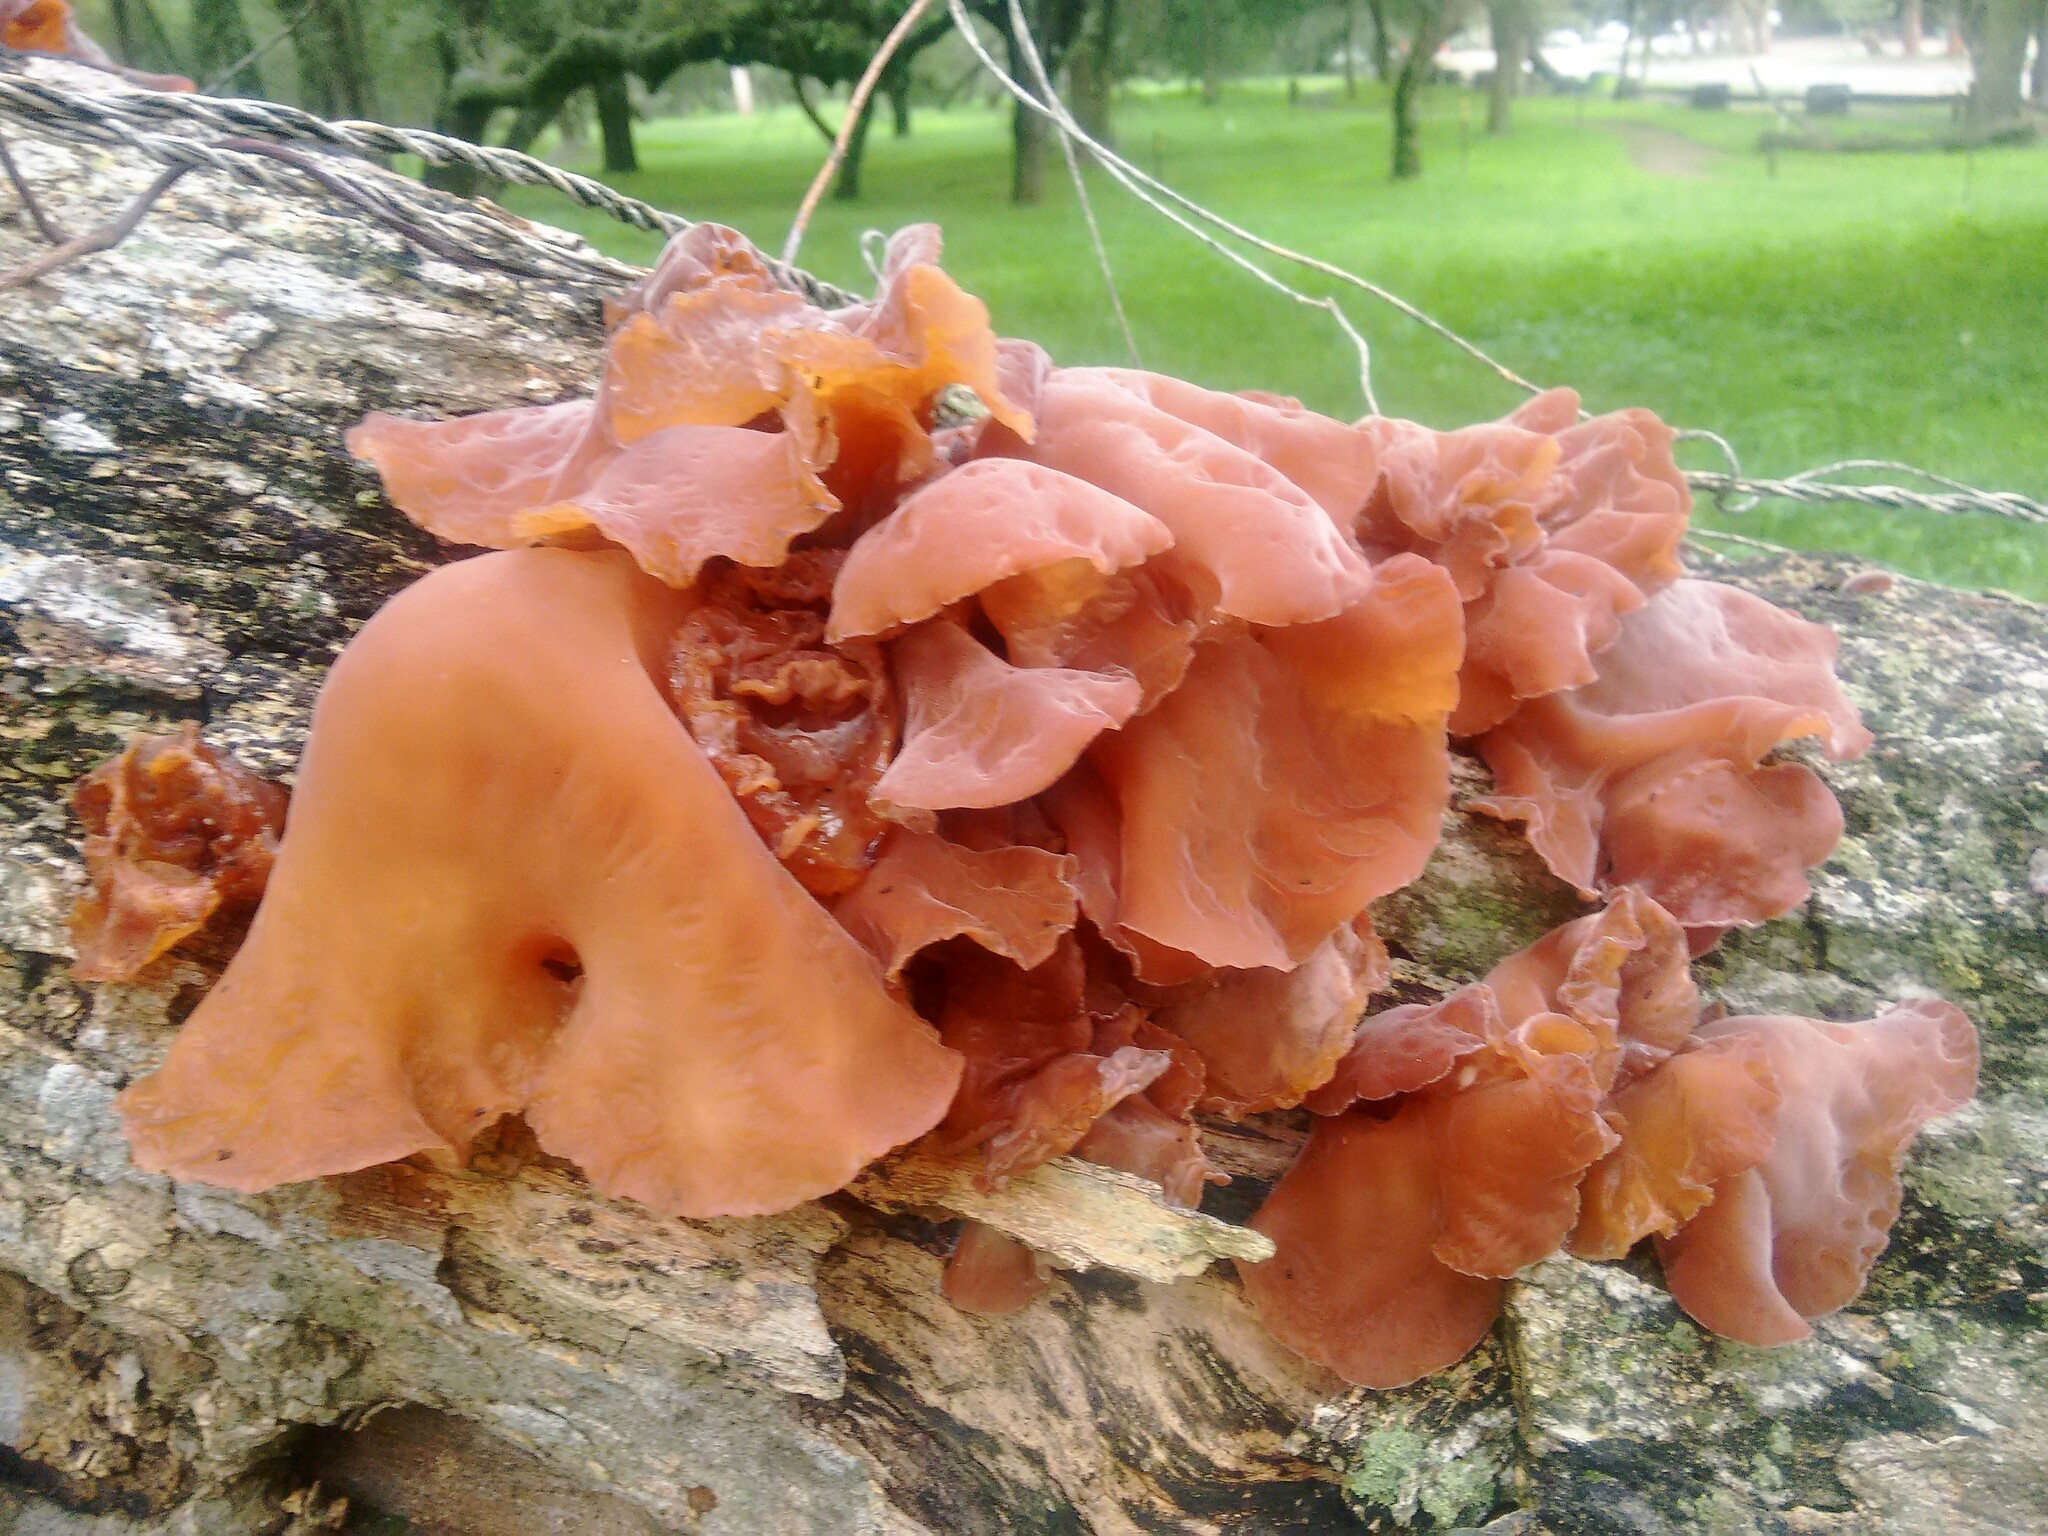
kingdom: Fungi
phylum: Basidiomycota
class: Agaricomycetes
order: Auriculariales
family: Auriculariaceae
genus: Auricularia
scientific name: Auricularia fuscosuccinea
